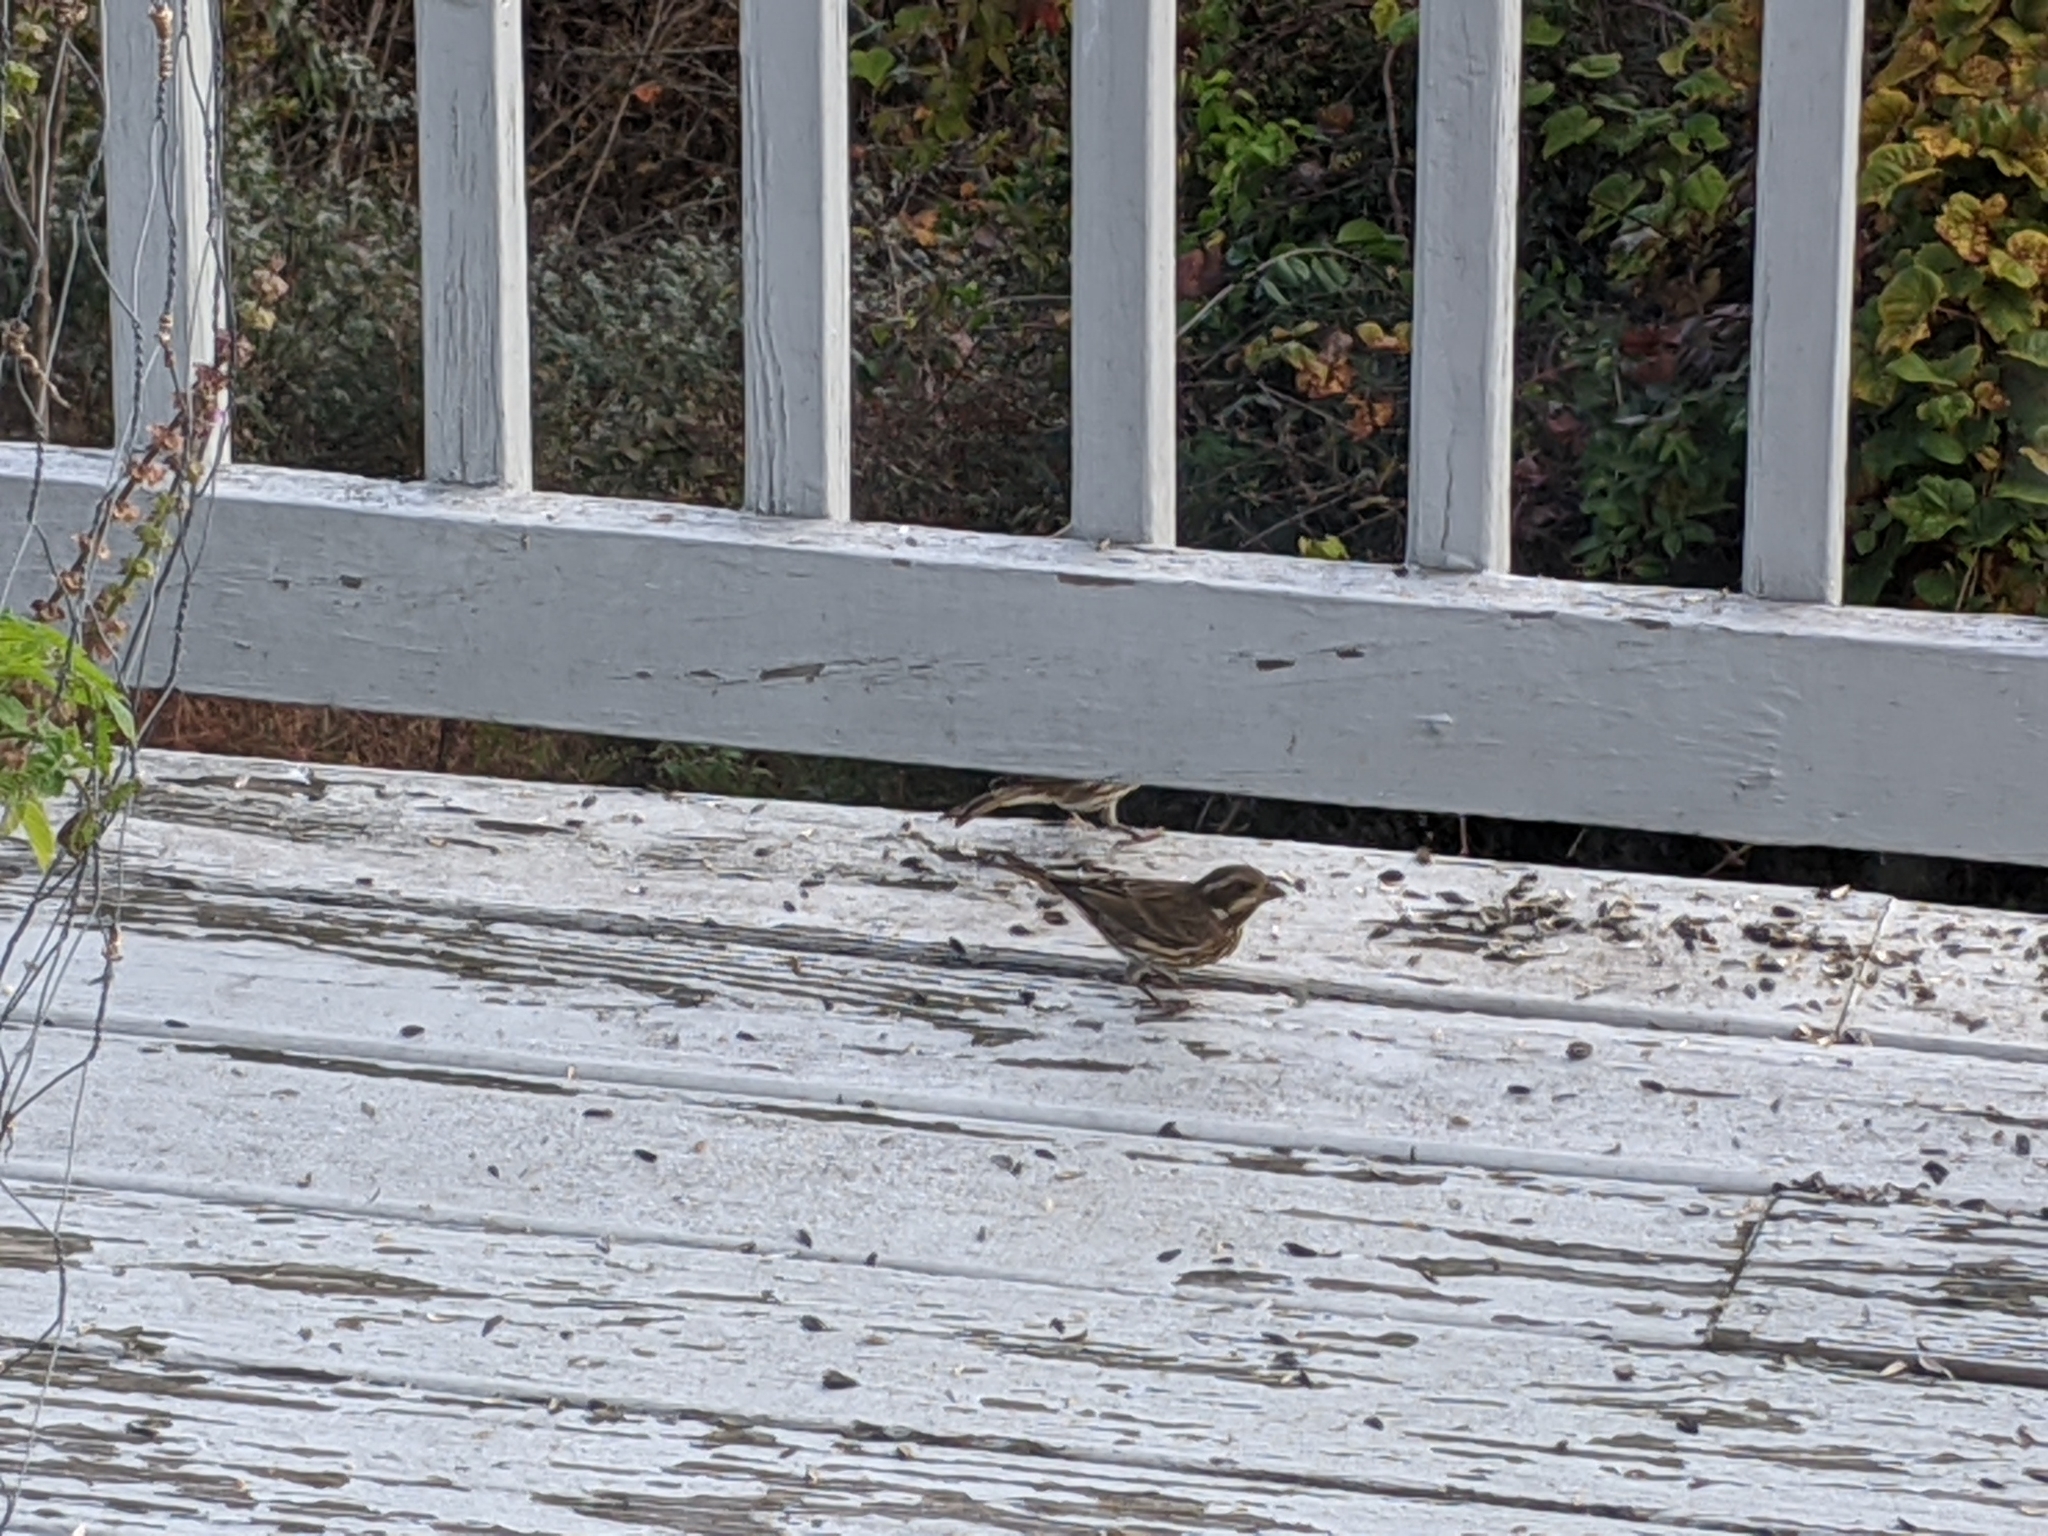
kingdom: Animalia
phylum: Chordata
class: Aves
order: Passeriformes
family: Fringillidae
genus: Haemorhous
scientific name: Haemorhous purpureus
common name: Purple finch
